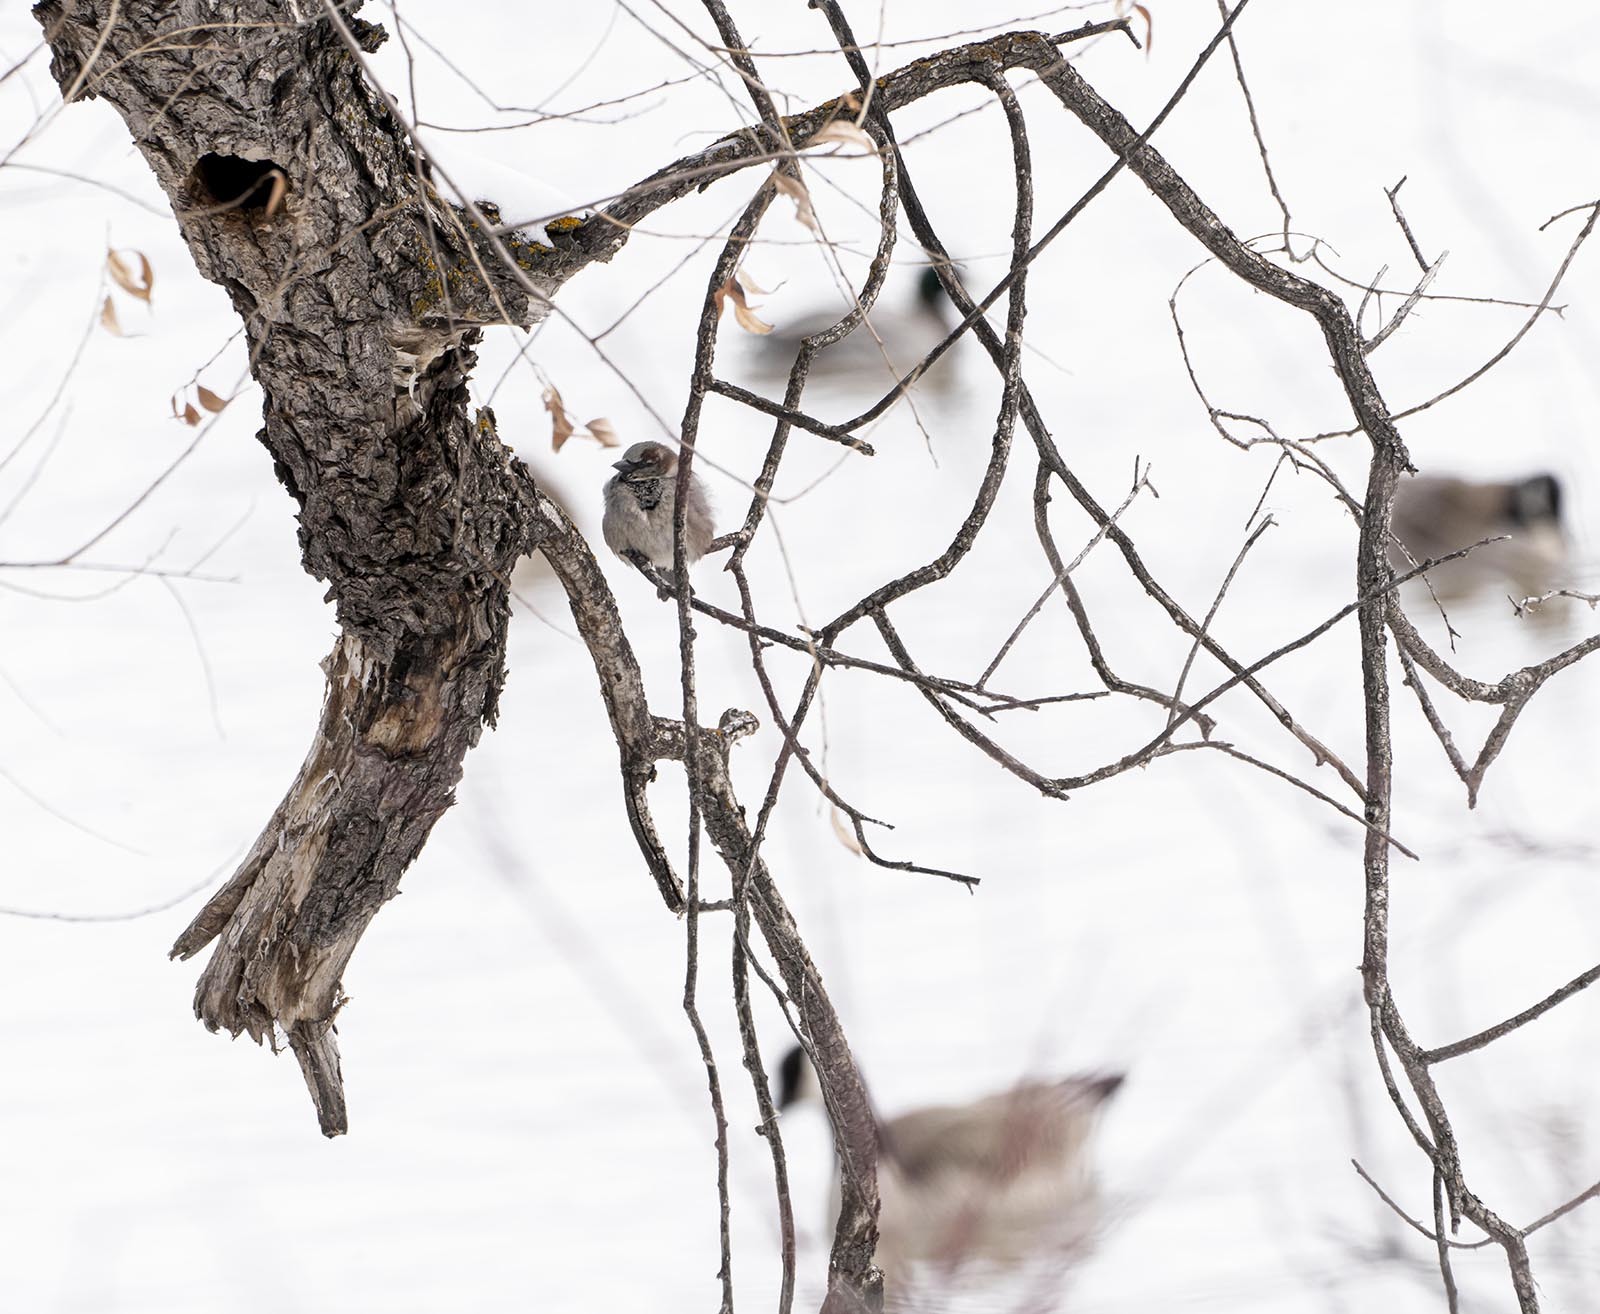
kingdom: Animalia
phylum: Chordata
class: Aves
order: Passeriformes
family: Passeridae
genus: Passer
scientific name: Passer domesticus
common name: House sparrow
